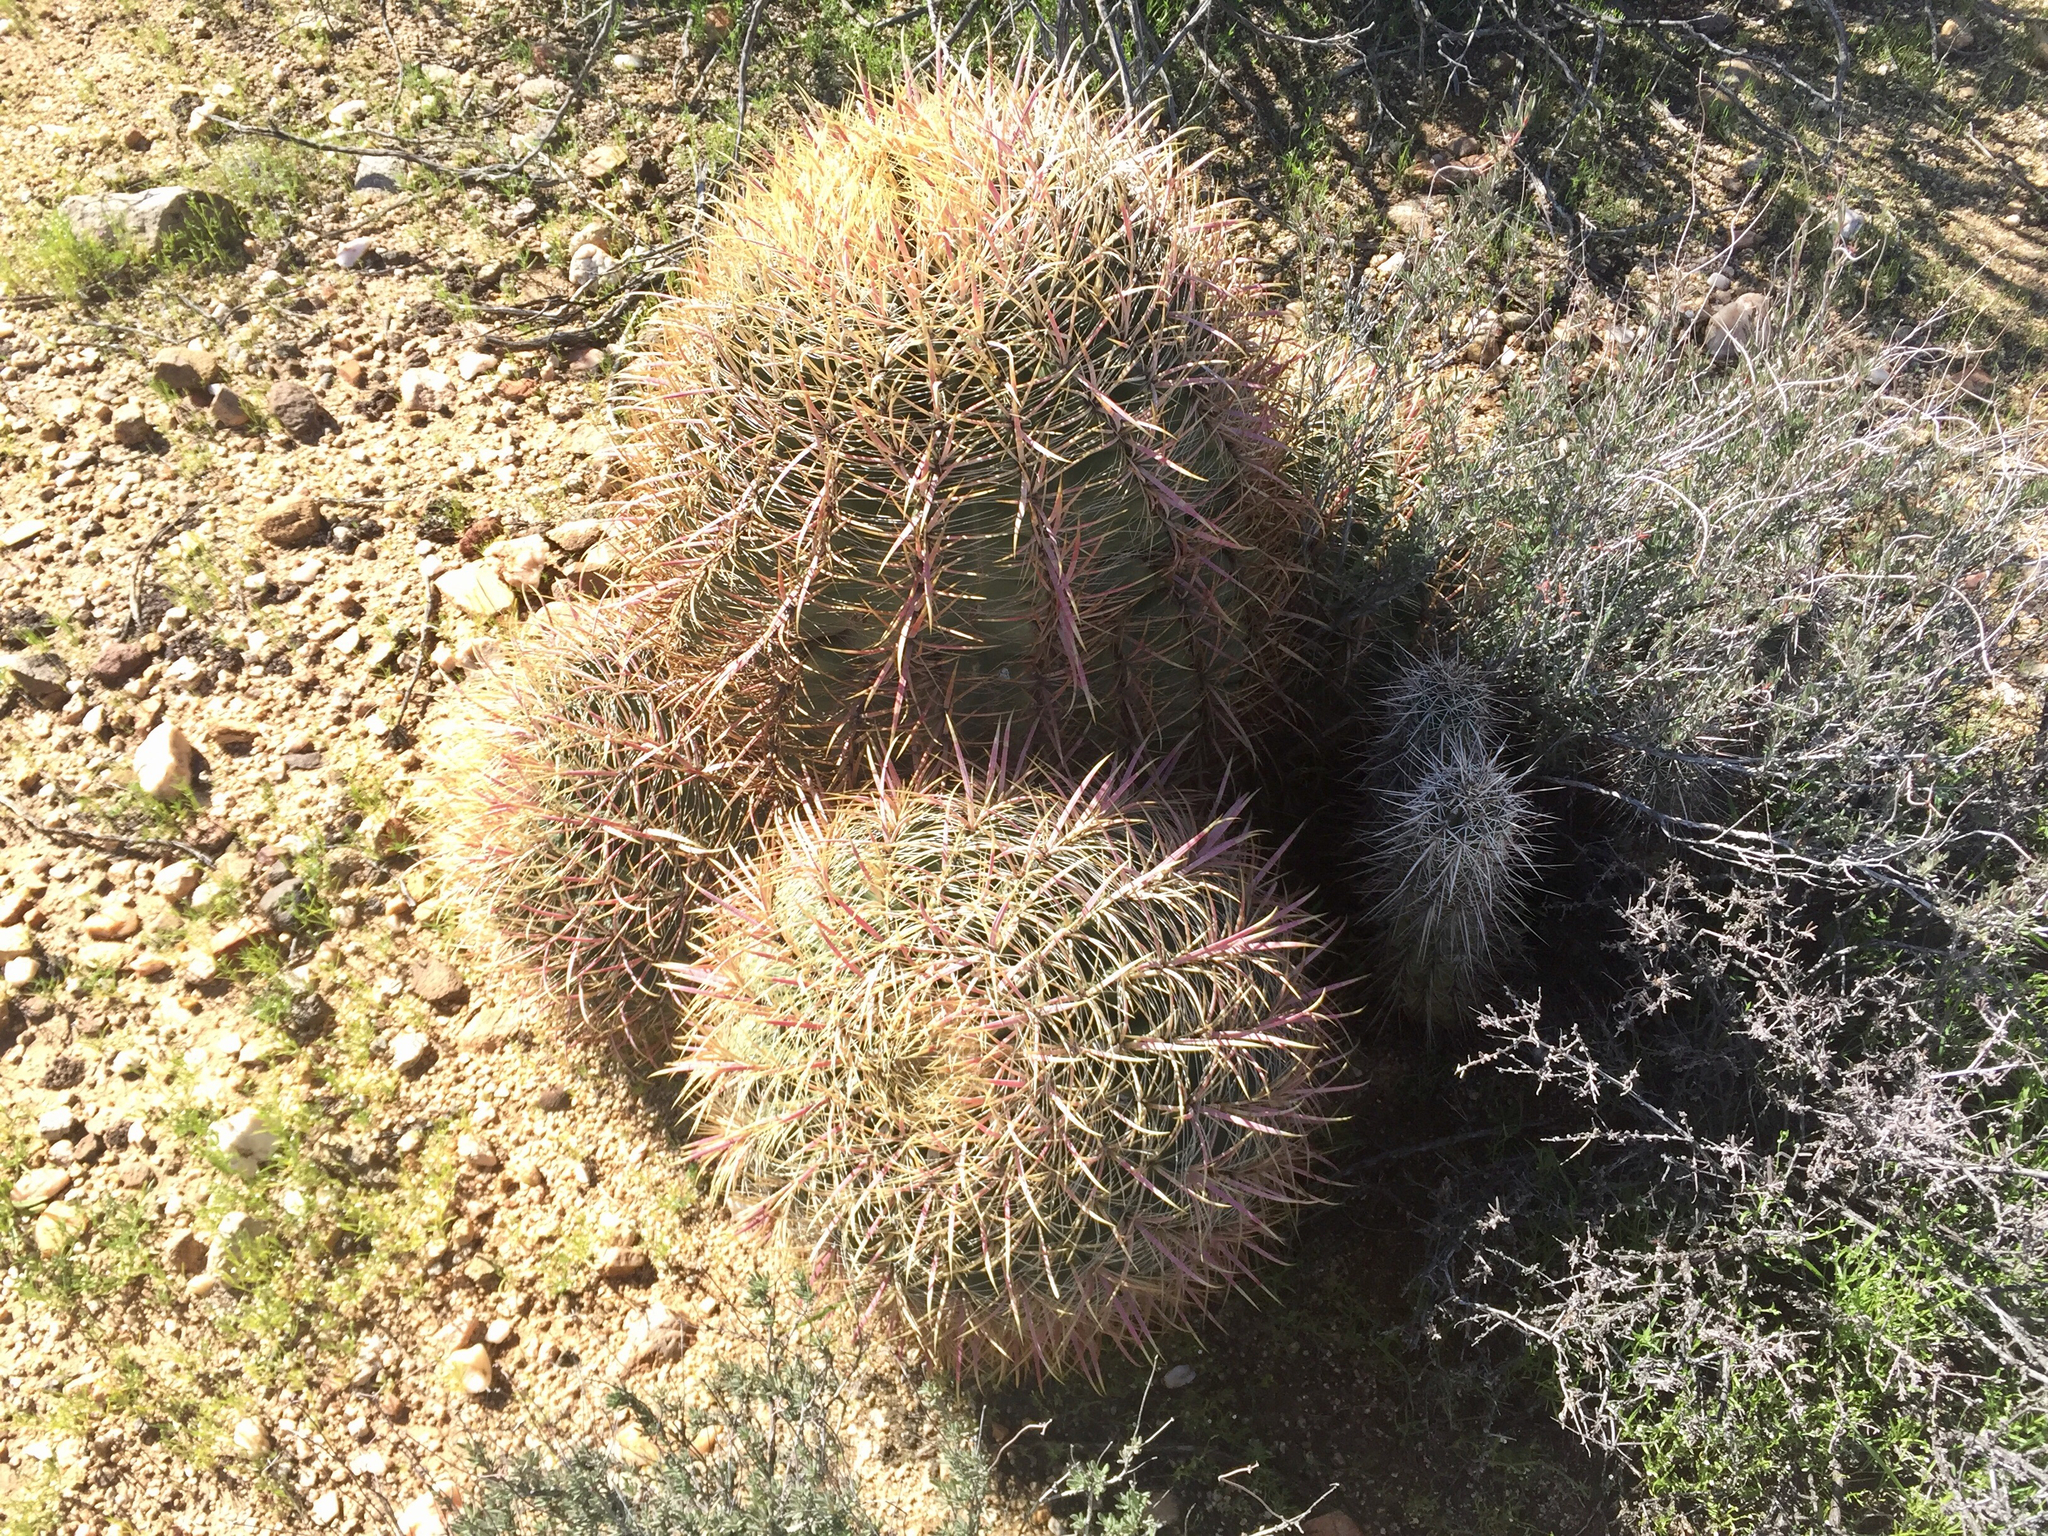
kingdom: Plantae
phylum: Tracheophyta
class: Magnoliopsida
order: Caryophyllales
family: Cactaceae
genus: Ferocactus
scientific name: Ferocactus cylindraceus
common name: California barrel cactus
